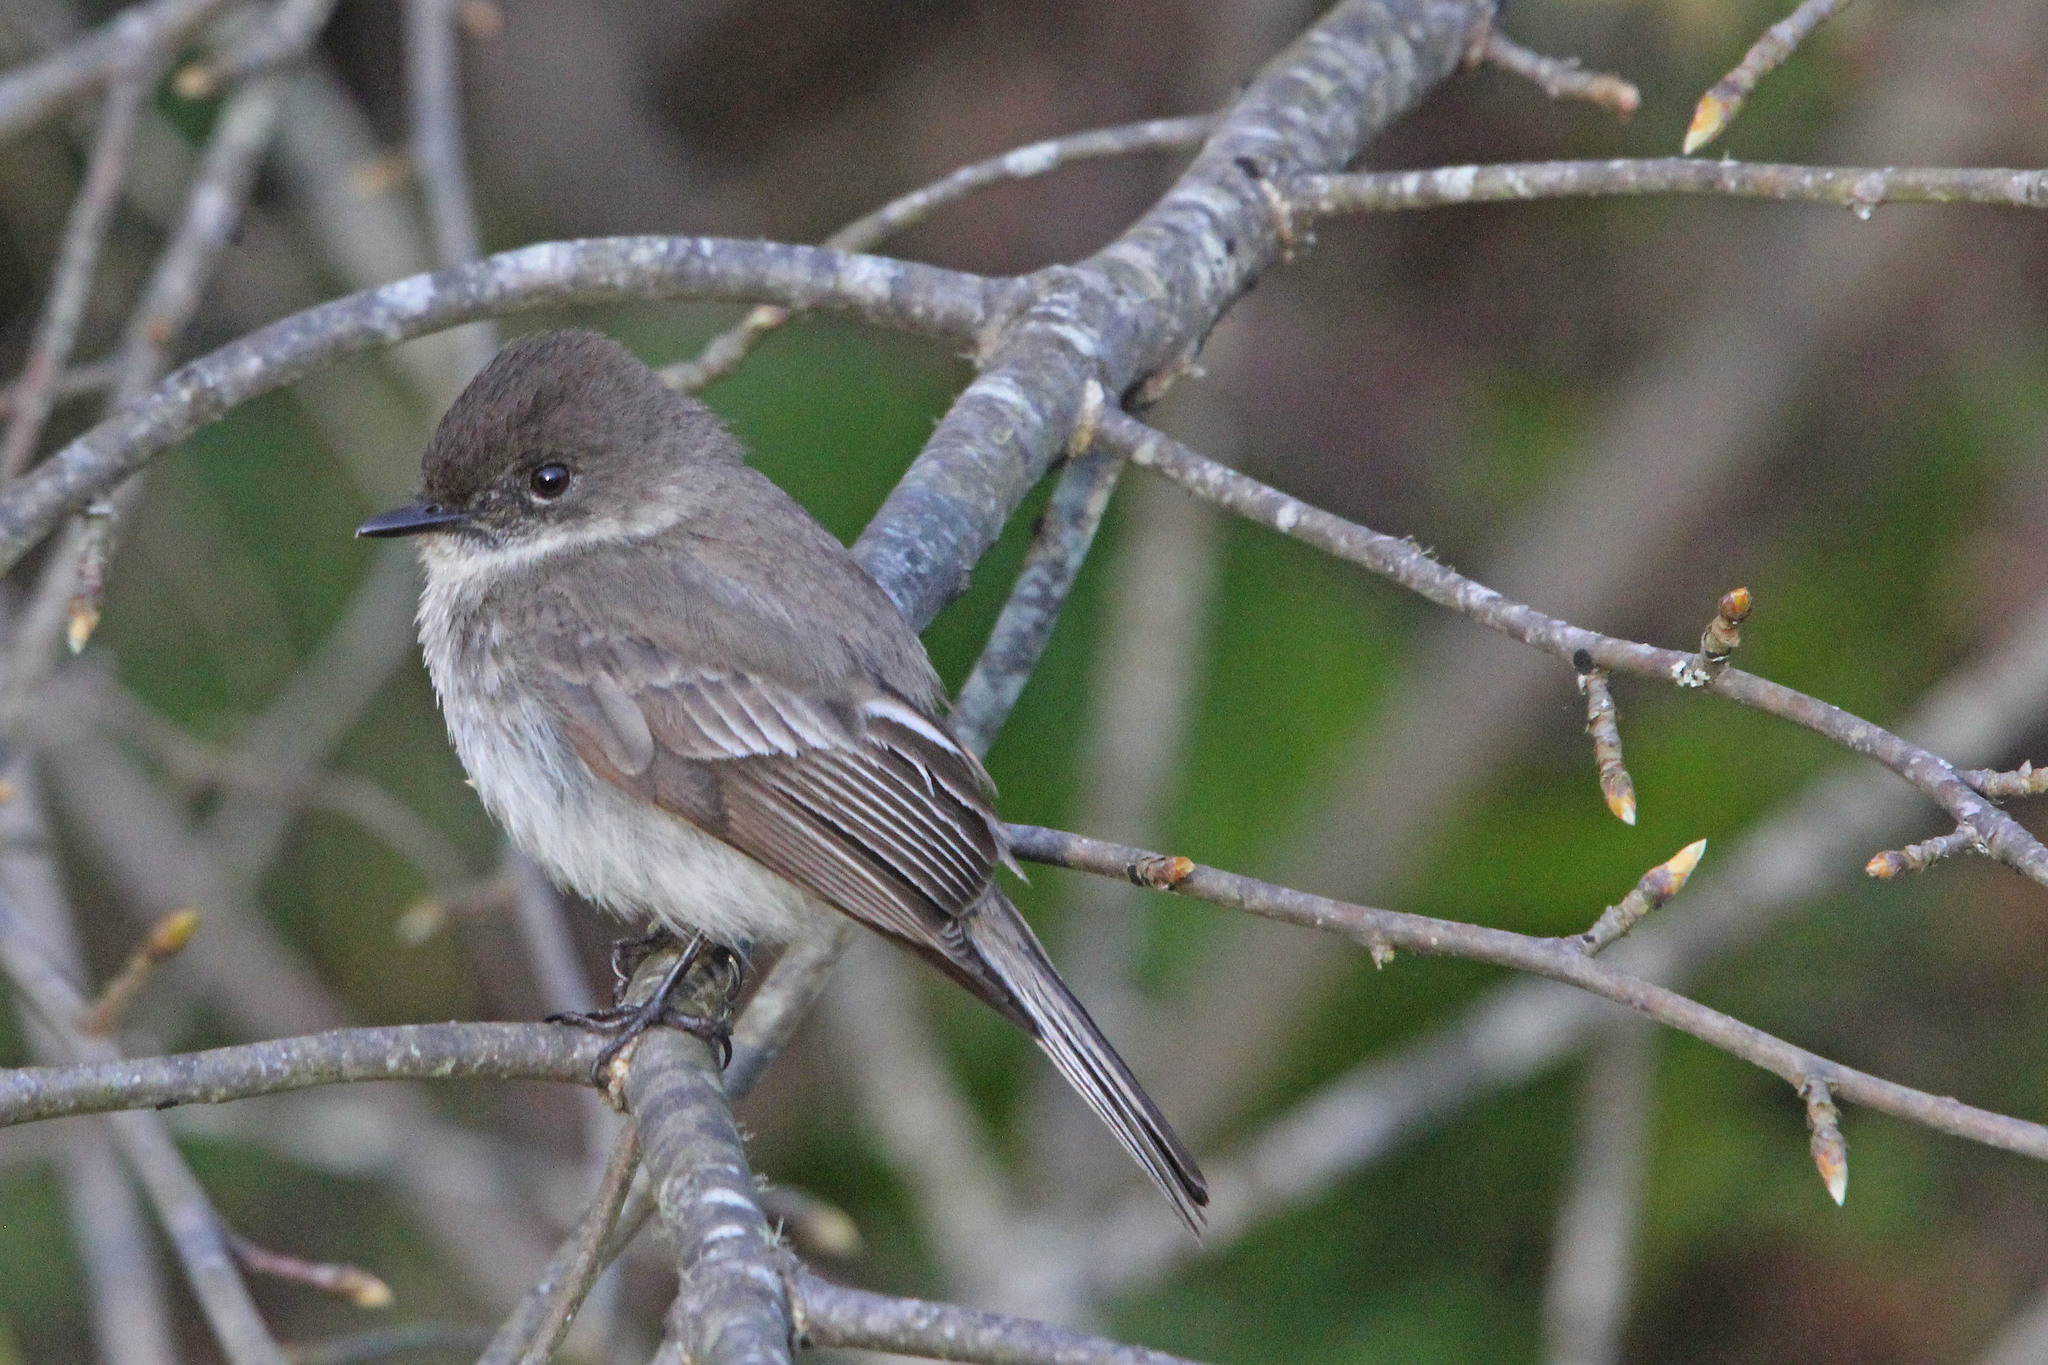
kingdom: Animalia
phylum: Chordata
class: Aves
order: Passeriformes
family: Tyrannidae
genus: Sayornis
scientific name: Sayornis phoebe
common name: Eastern phoebe
